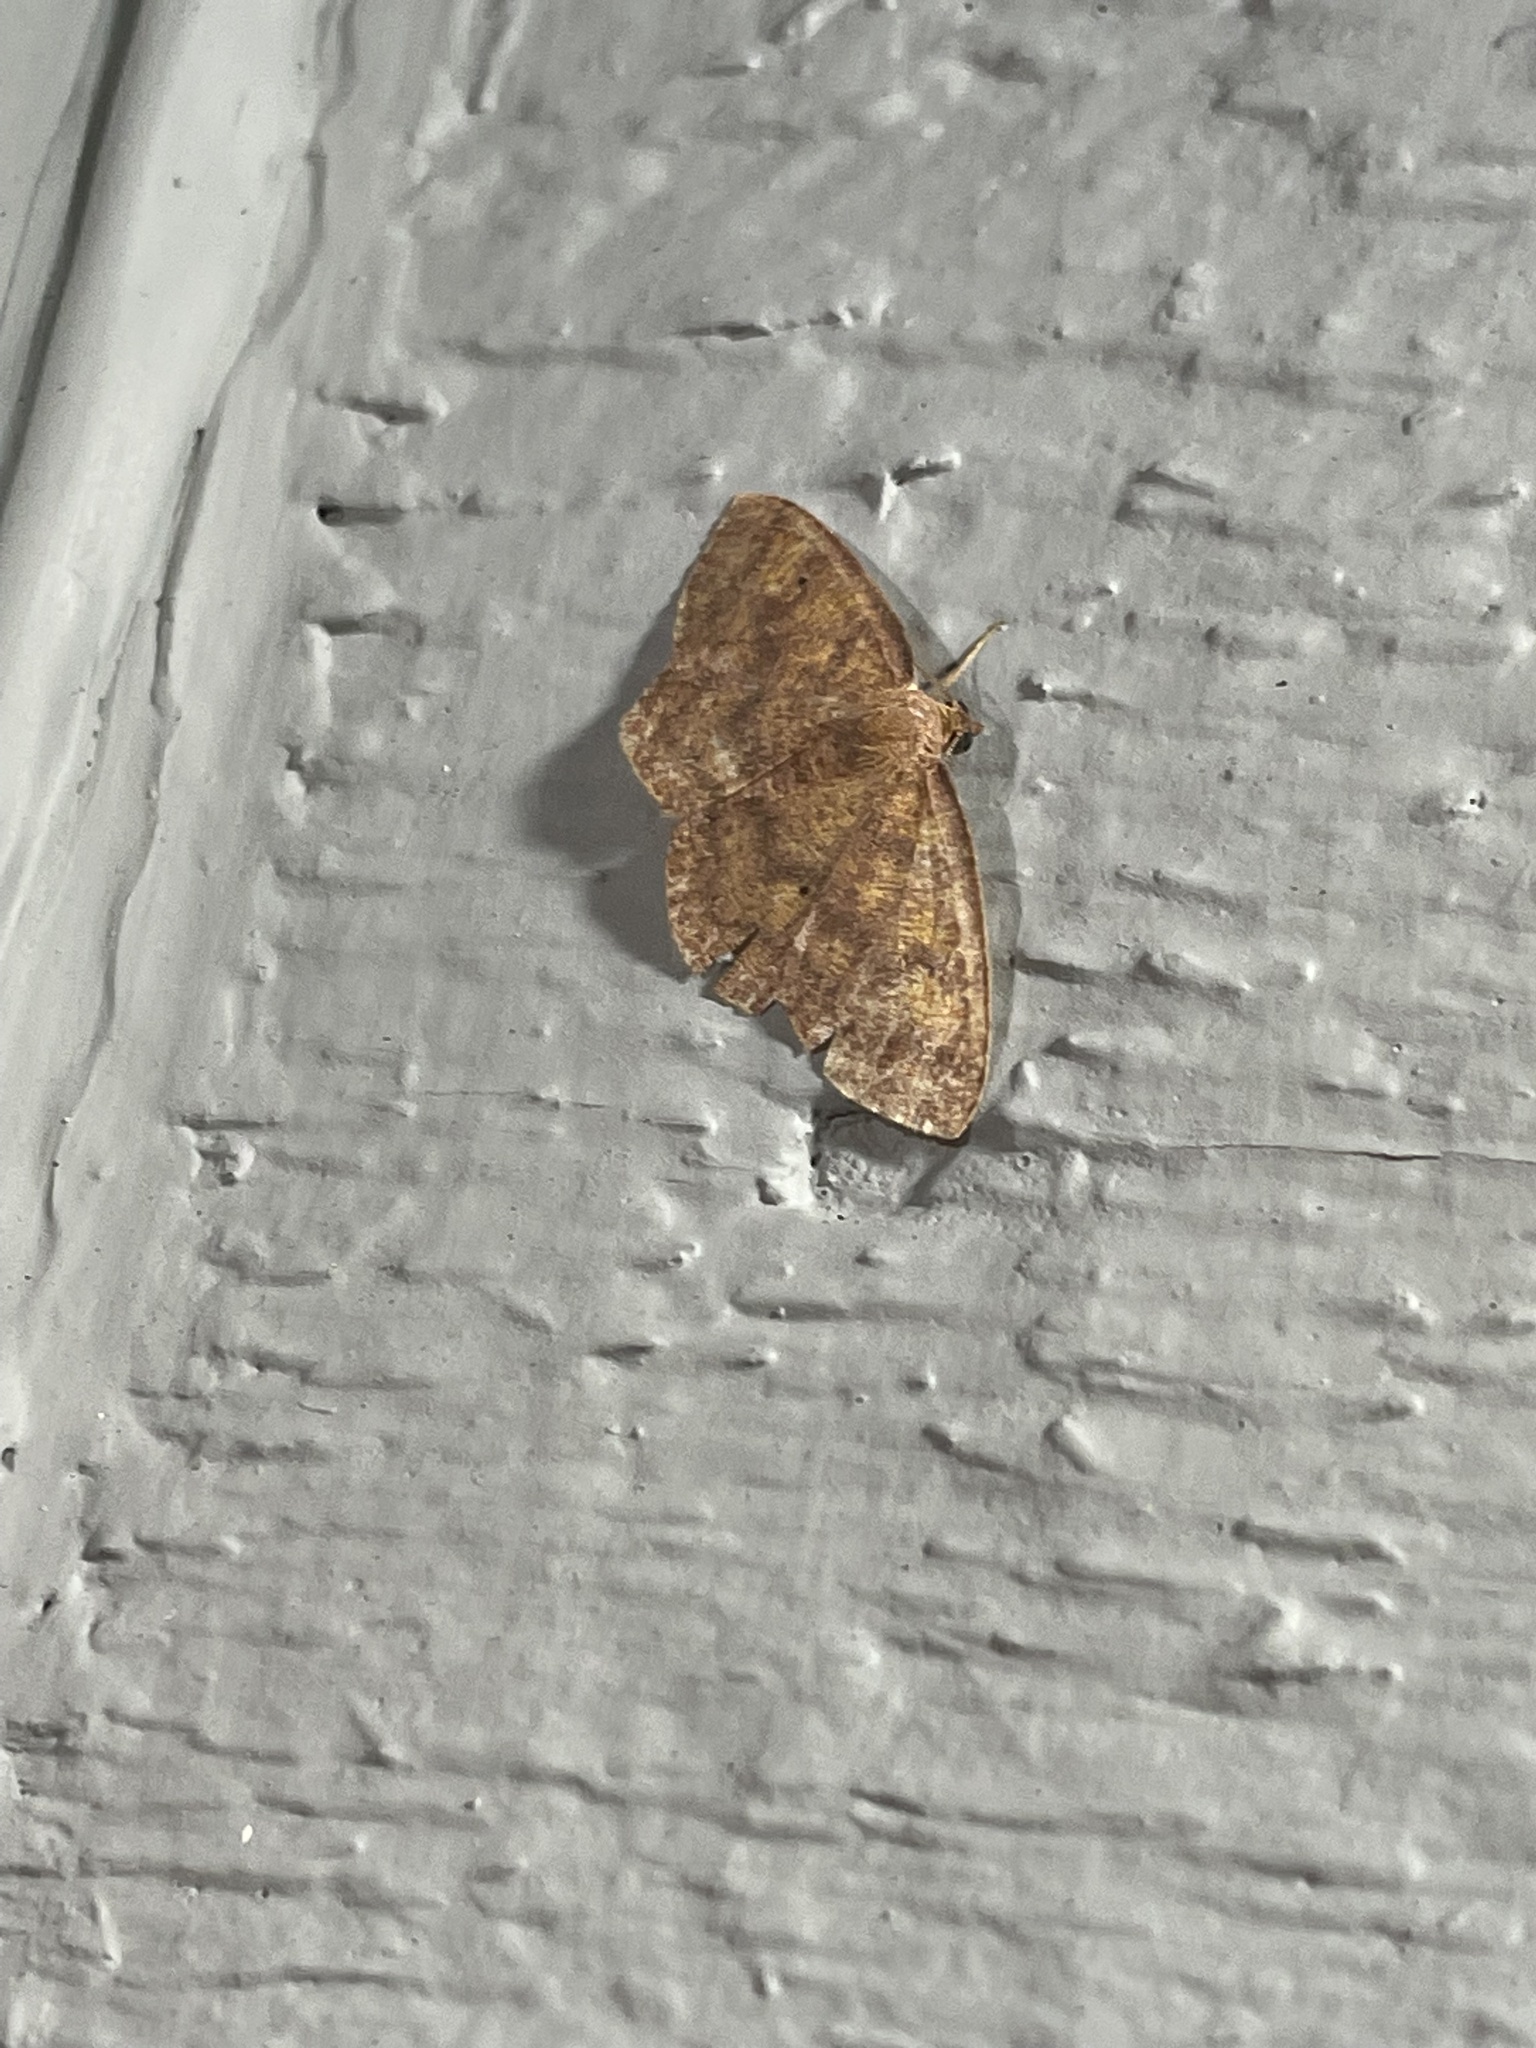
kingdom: Animalia
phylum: Arthropoda
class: Insecta
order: Lepidoptera
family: Geometridae
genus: Ilexia
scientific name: Ilexia intractata
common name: Black-dotted ruddy moth
